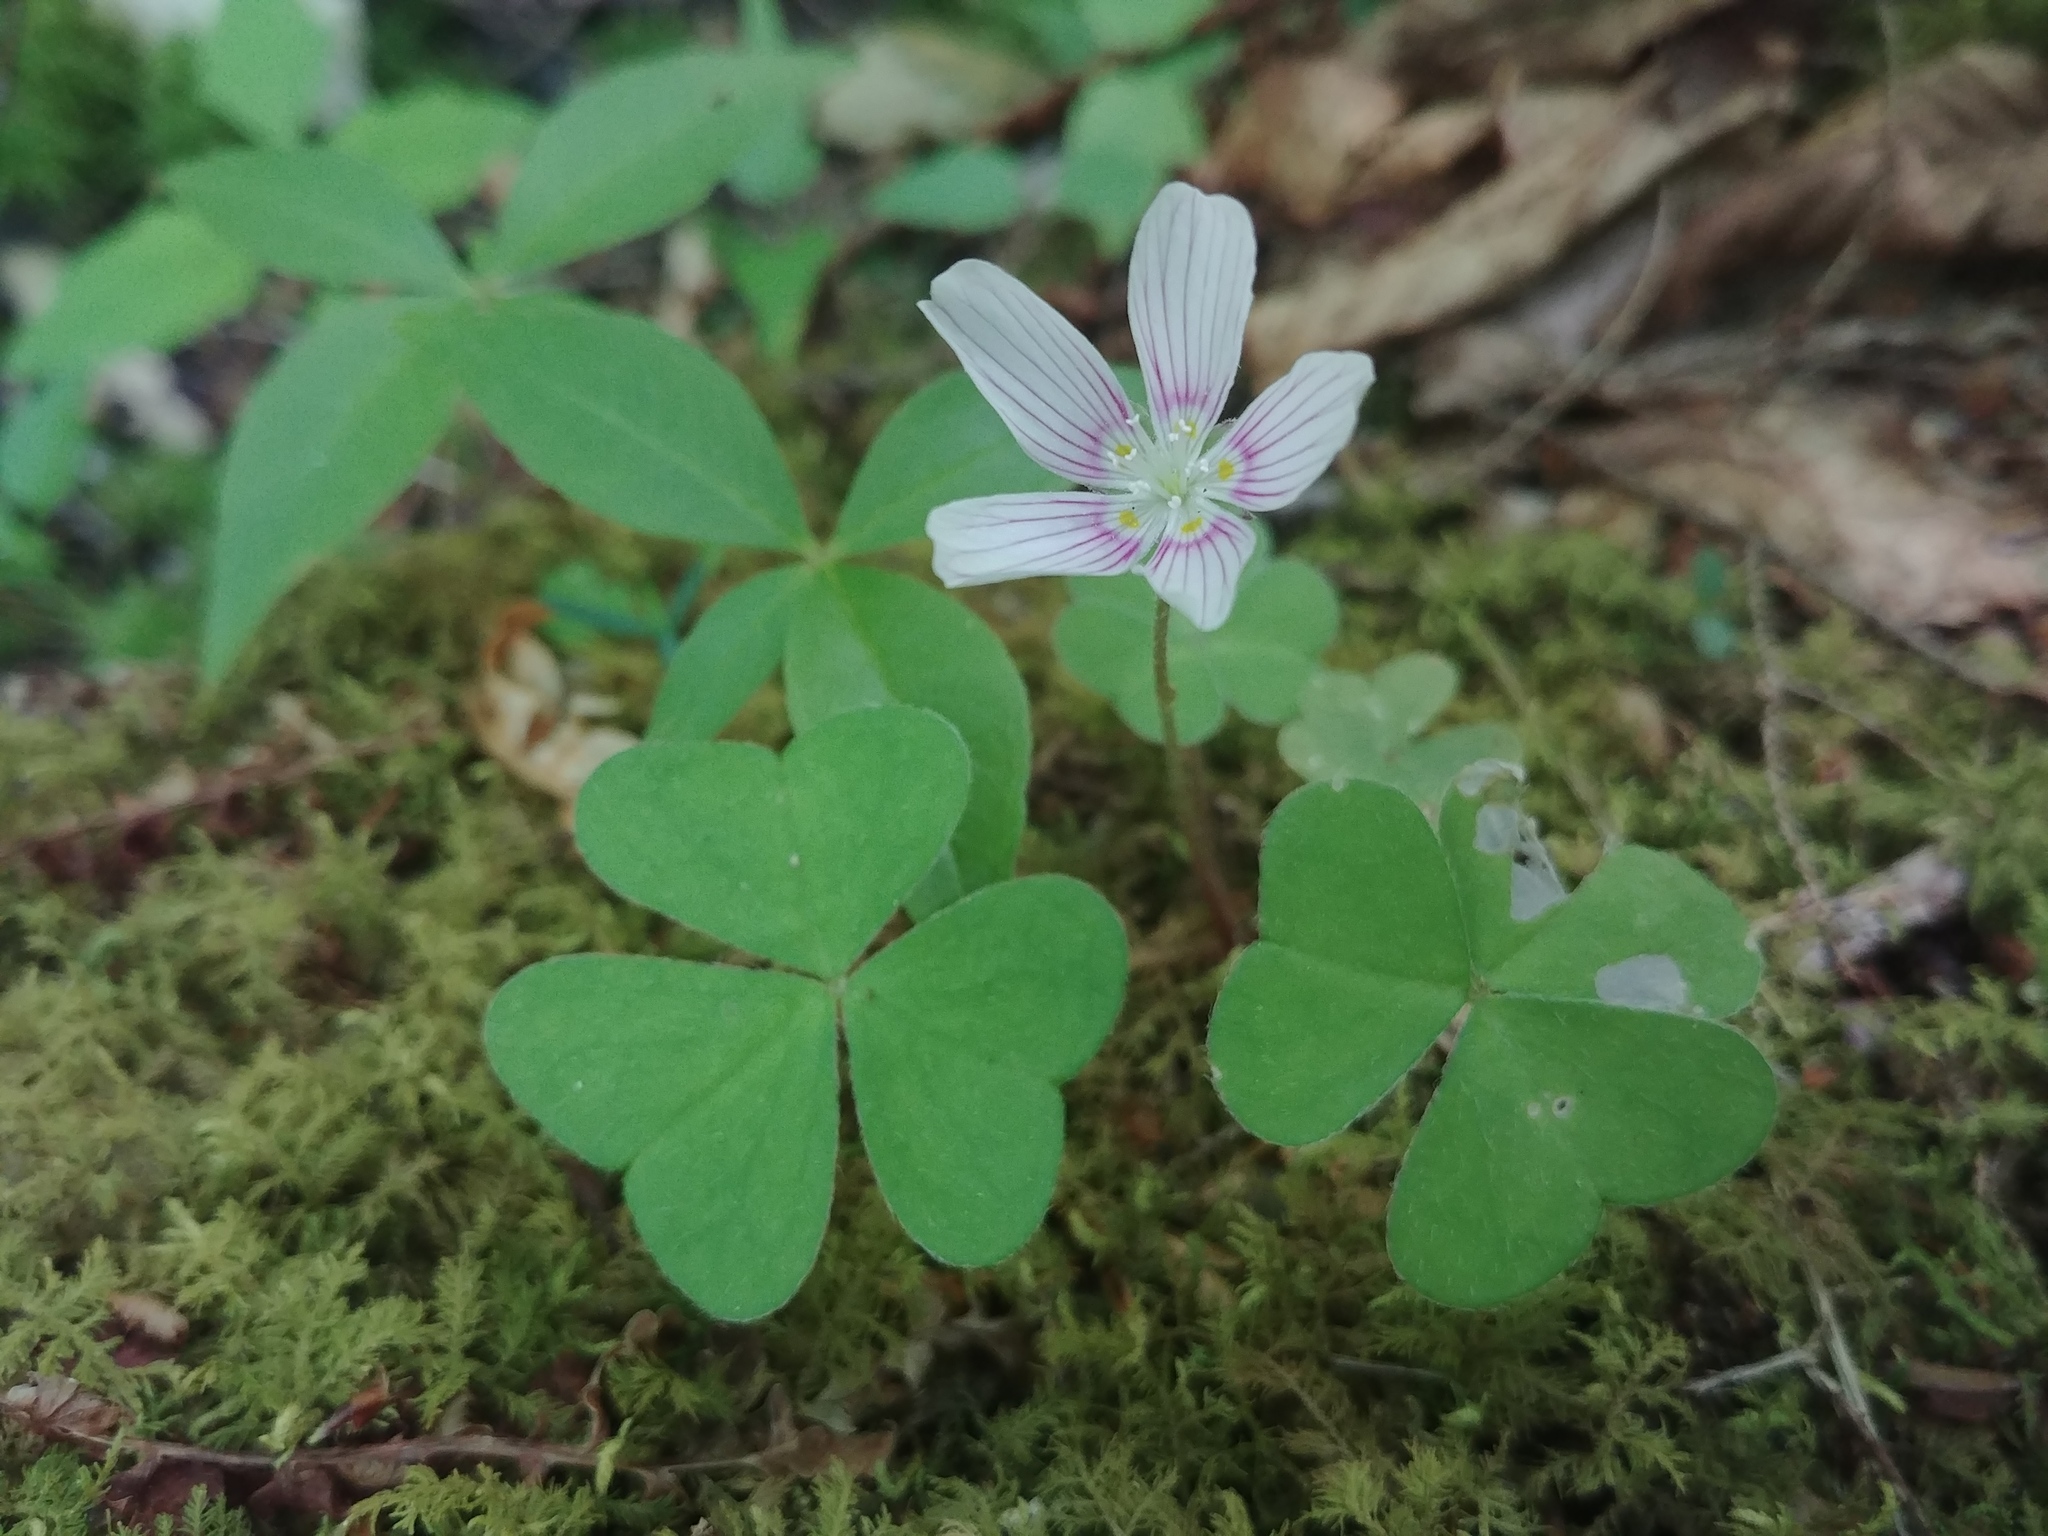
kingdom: Plantae
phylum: Tracheophyta
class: Magnoliopsida
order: Oxalidales
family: Oxalidaceae
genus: Oxalis
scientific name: Oxalis montana
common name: American wood-sorrel
